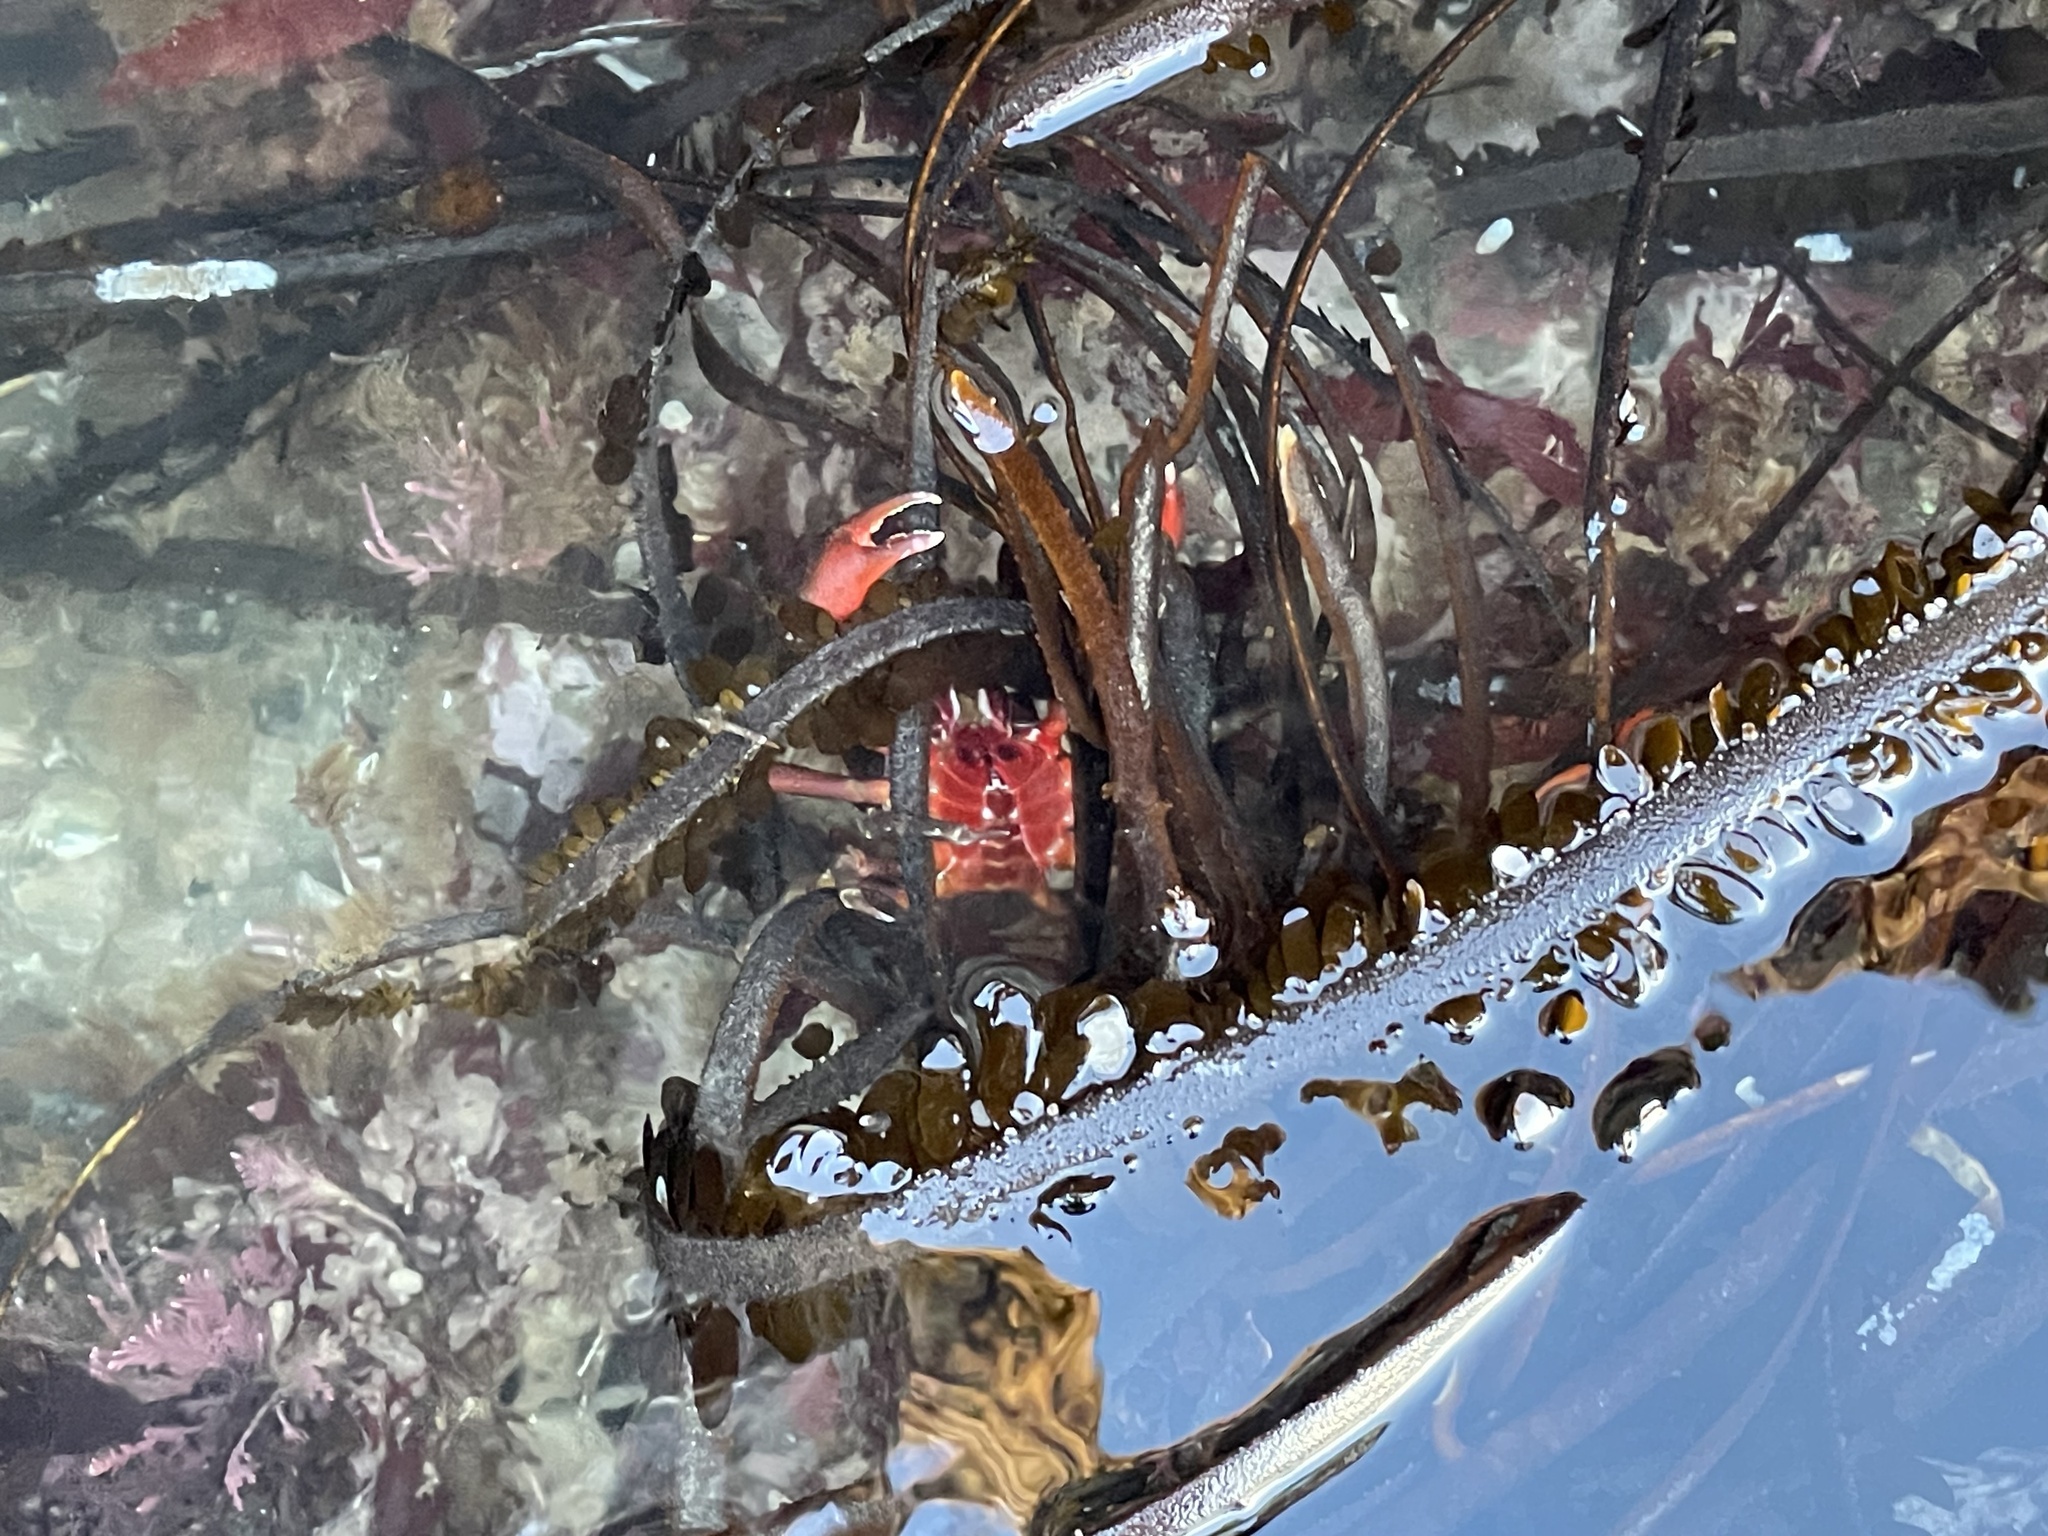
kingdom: Animalia
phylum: Arthropoda
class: Malacostraca
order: Decapoda
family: Epialtidae
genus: Pugettia
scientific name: Pugettia producta
